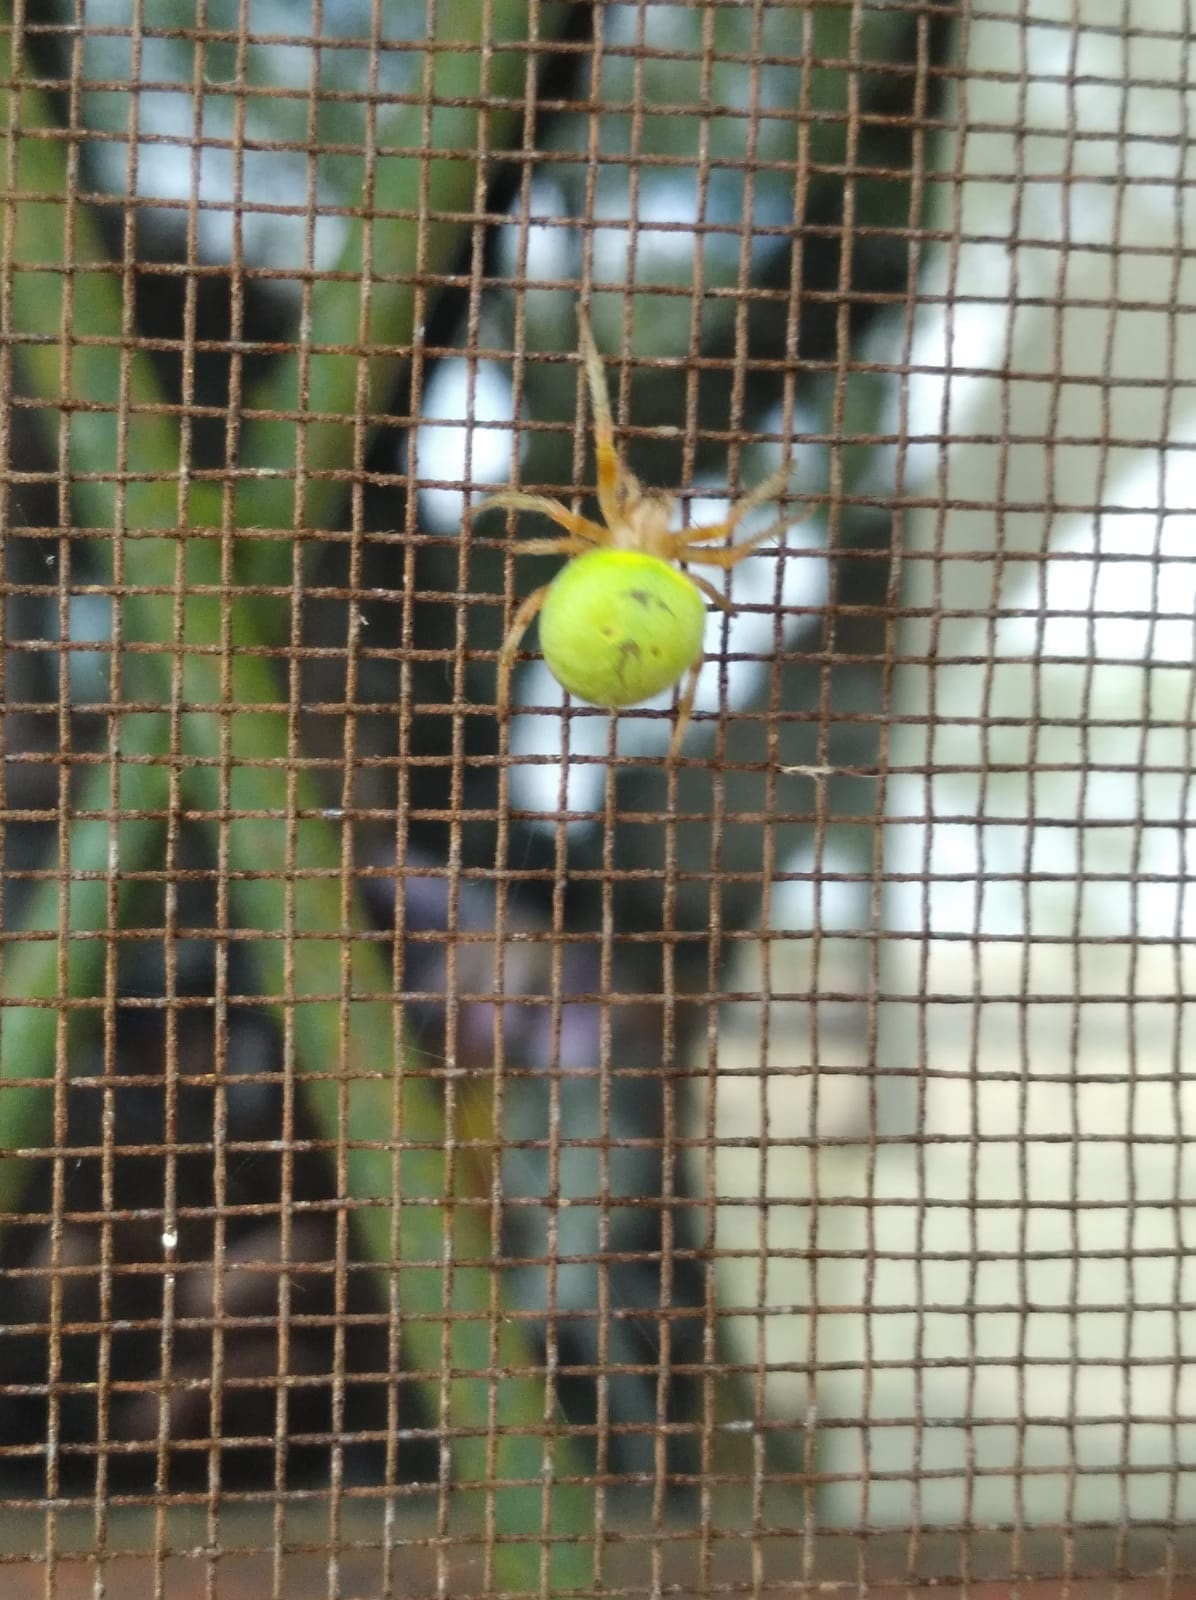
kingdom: Animalia
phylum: Arthropoda
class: Arachnida
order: Araneae
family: Araneidae
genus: Araneus
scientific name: Araneus lathyrinus
